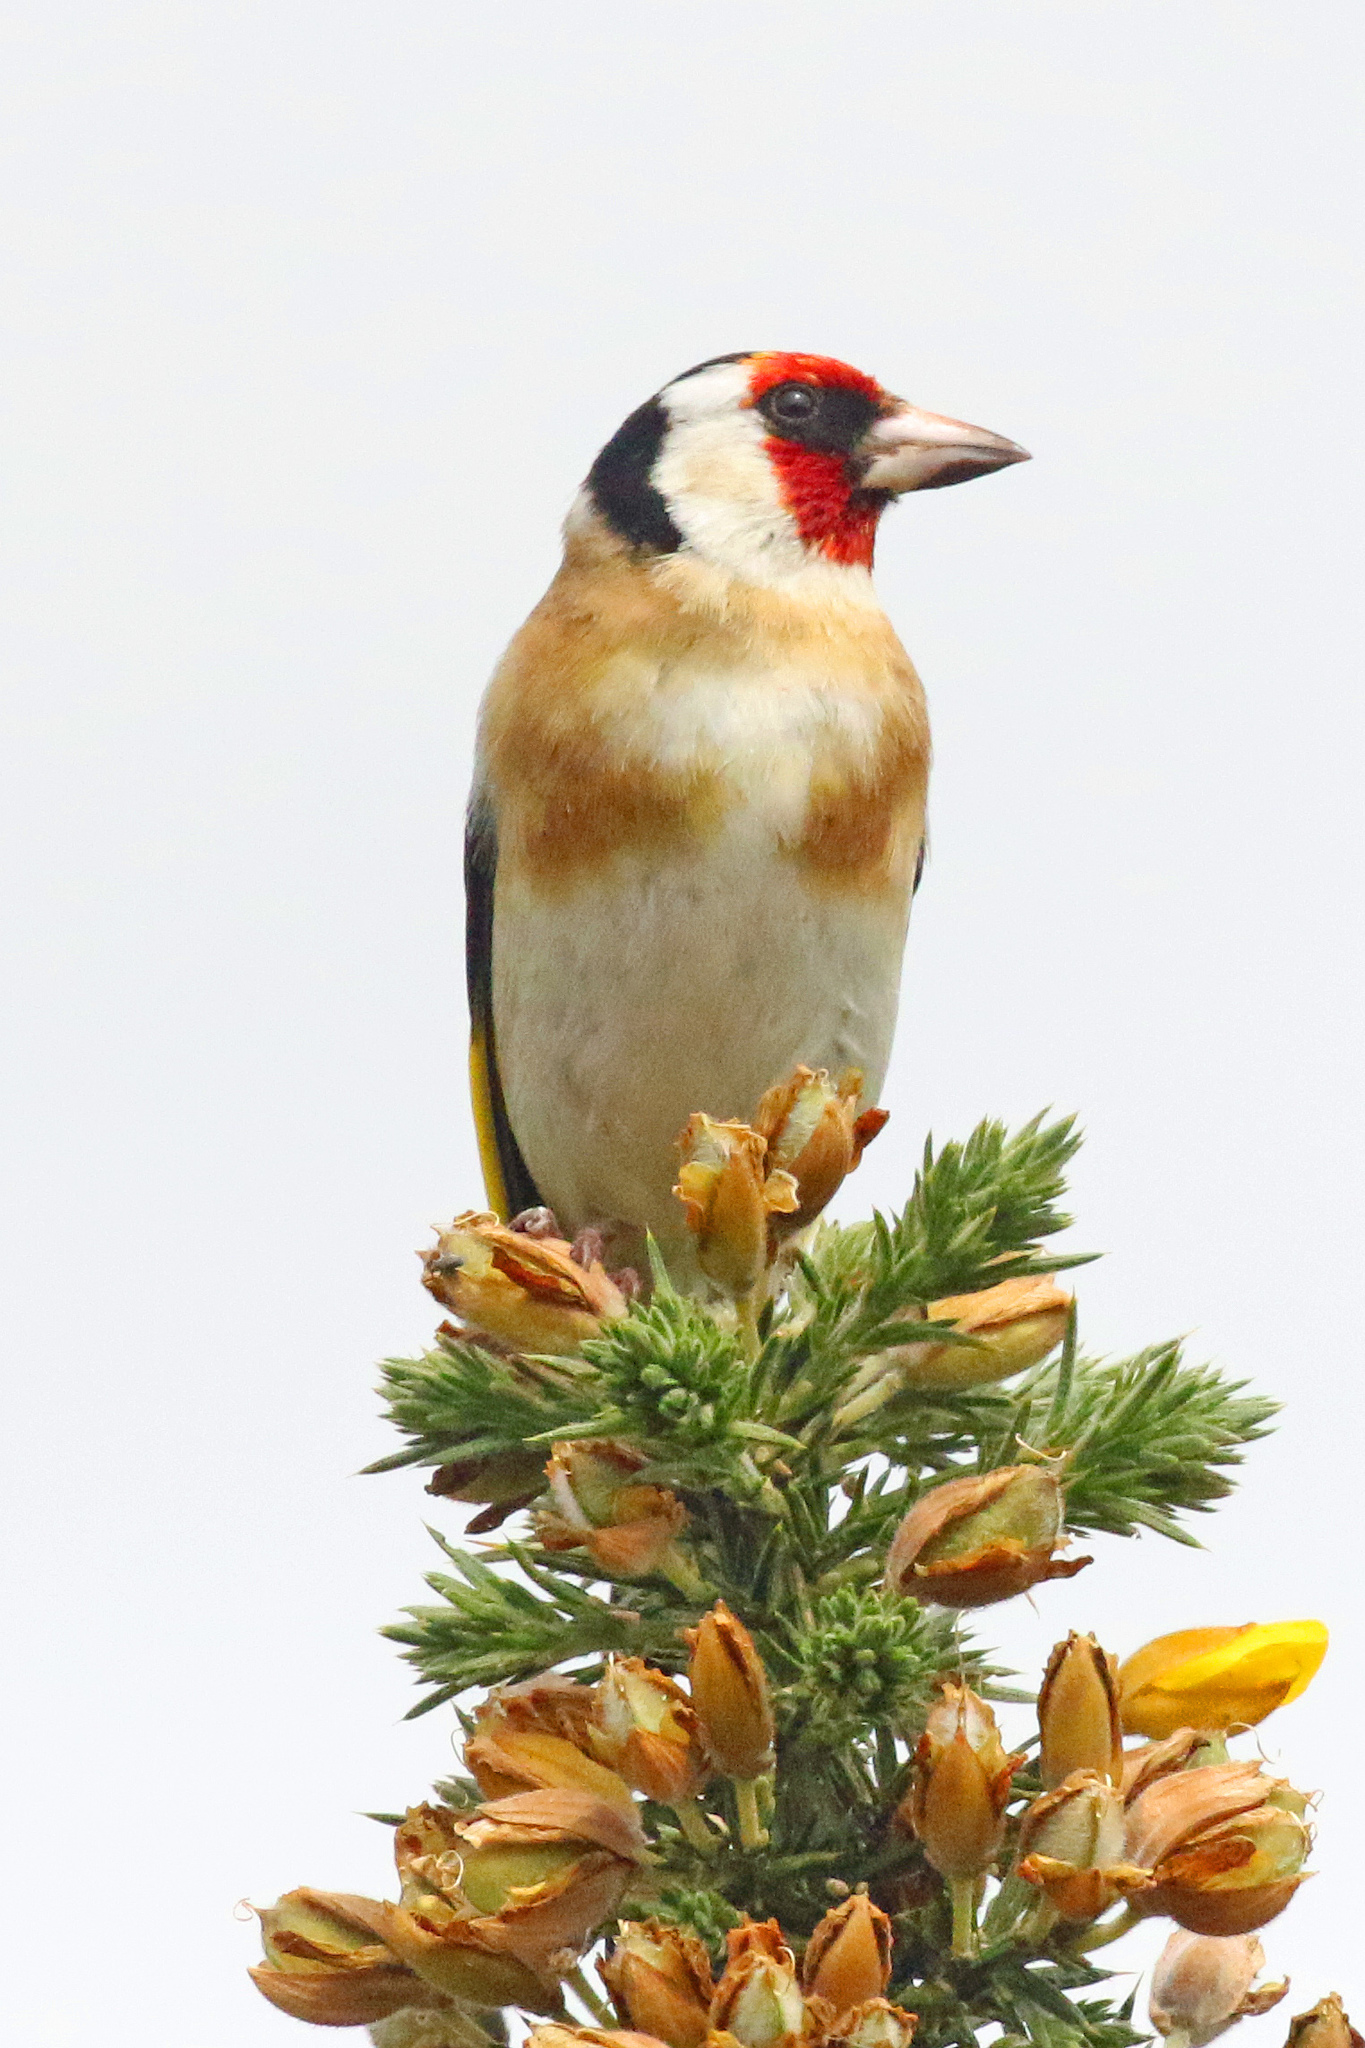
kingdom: Animalia
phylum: Chordata
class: Aves
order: Passeriformes
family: Fringillidae
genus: Carduelis
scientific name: Carduelis carduelis
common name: European goldfinch
